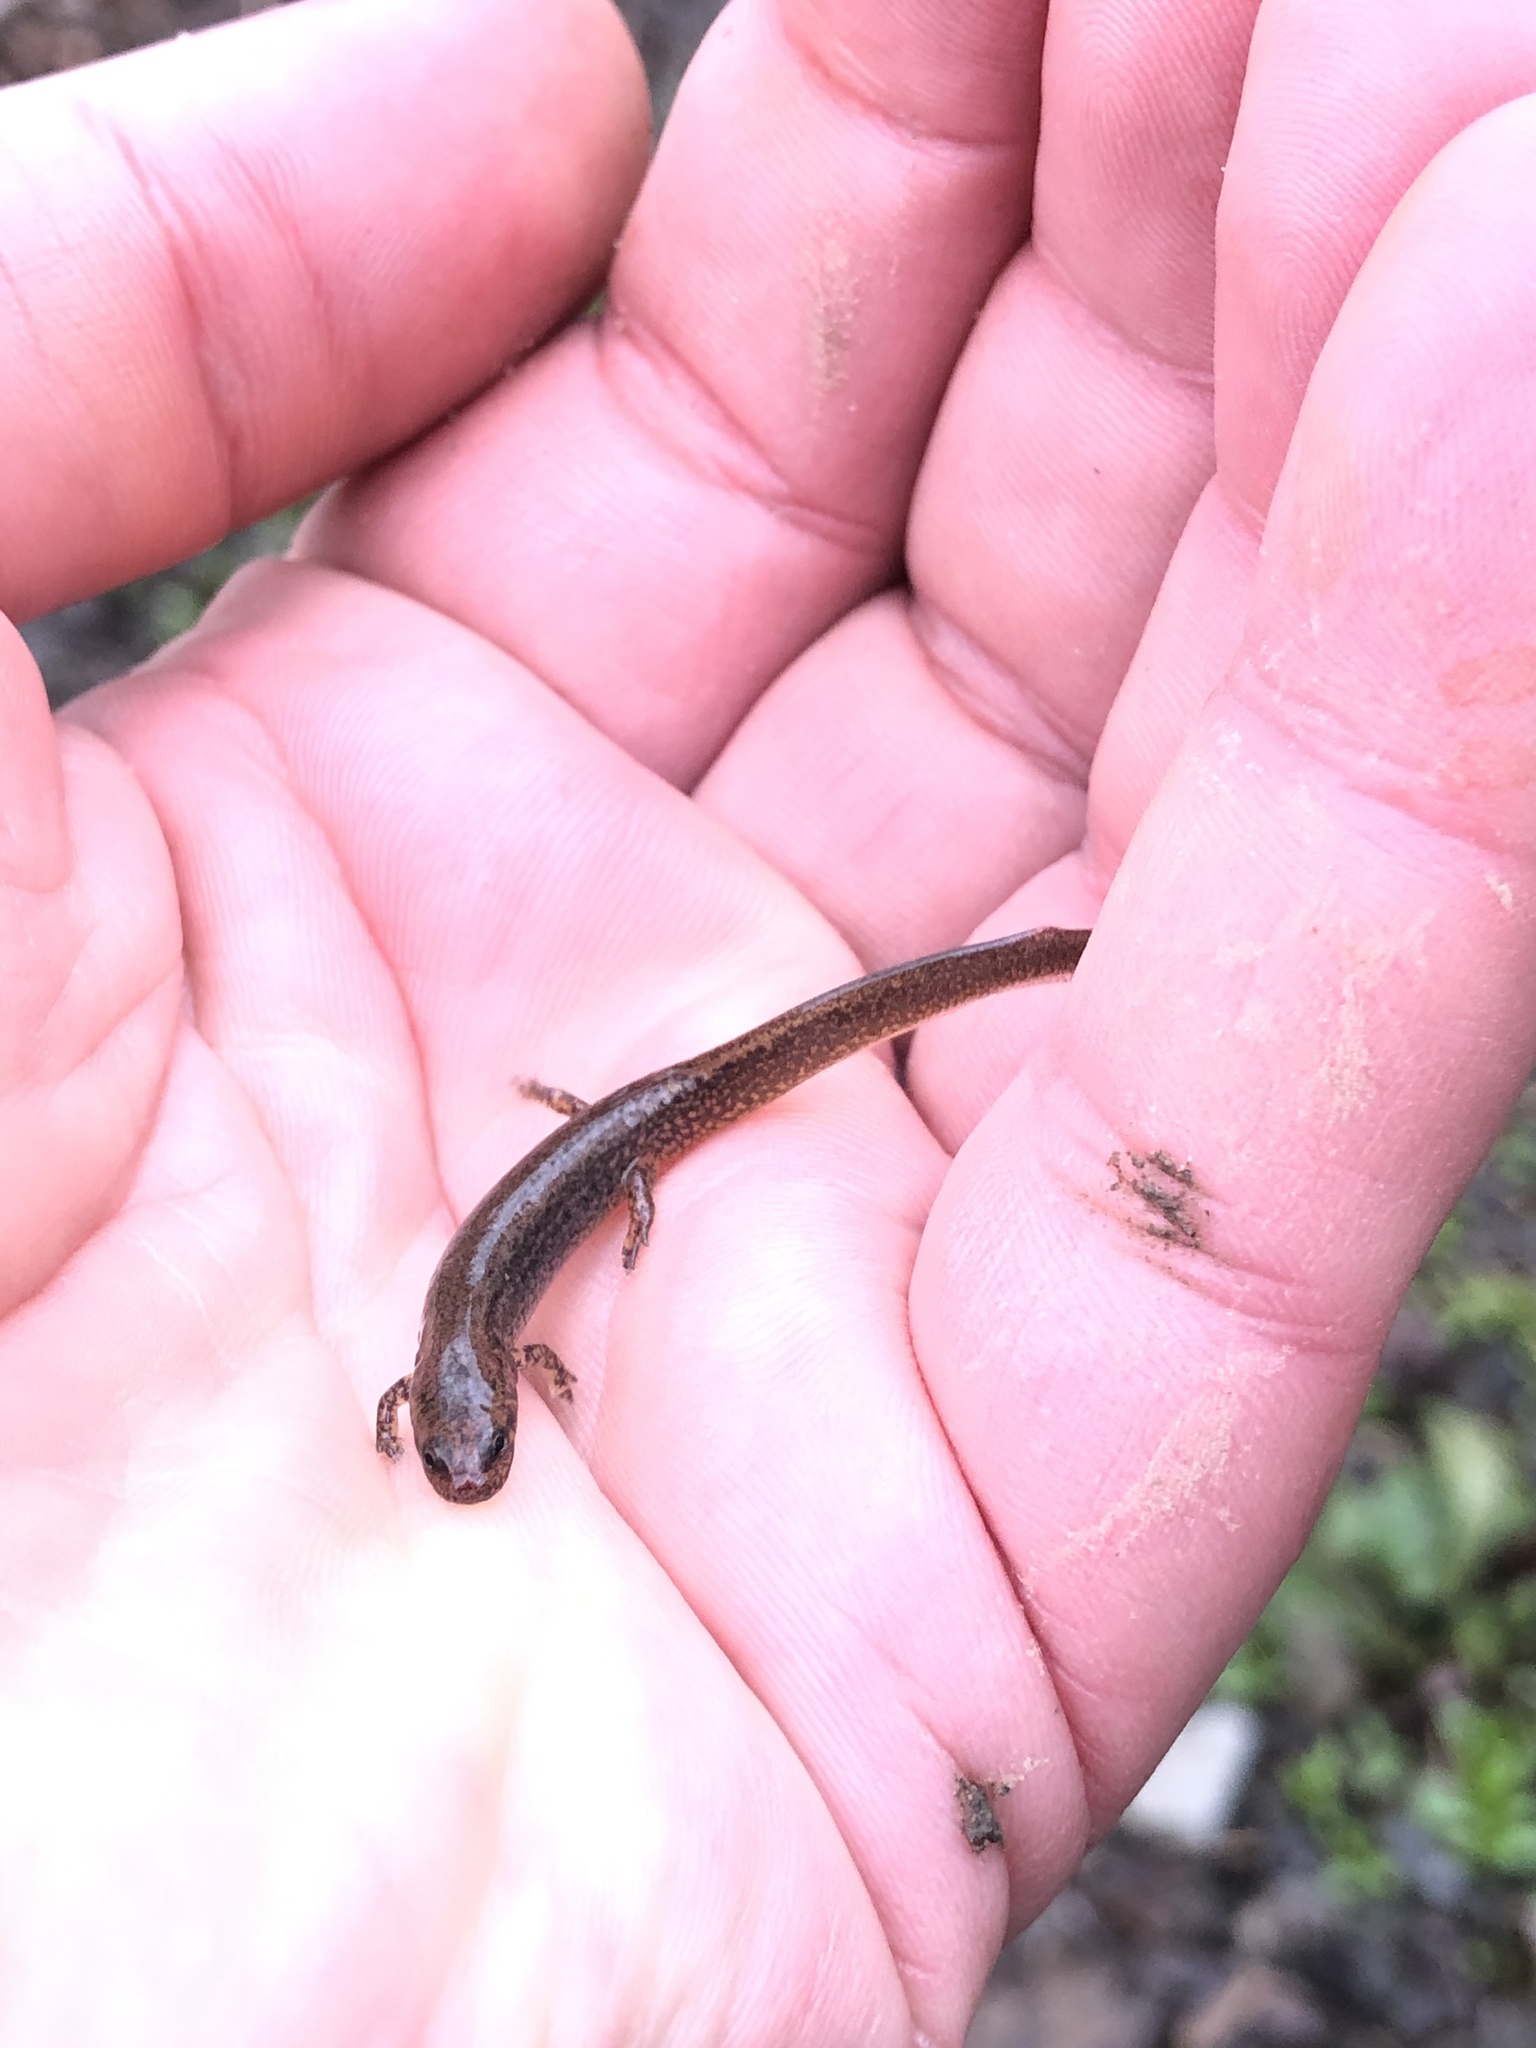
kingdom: Animalia
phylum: Chordata
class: Amphibia
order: Caudata
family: Plethodontidae
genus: Eurycea
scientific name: Eurycea bislineata
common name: Northern two-lined salamander
